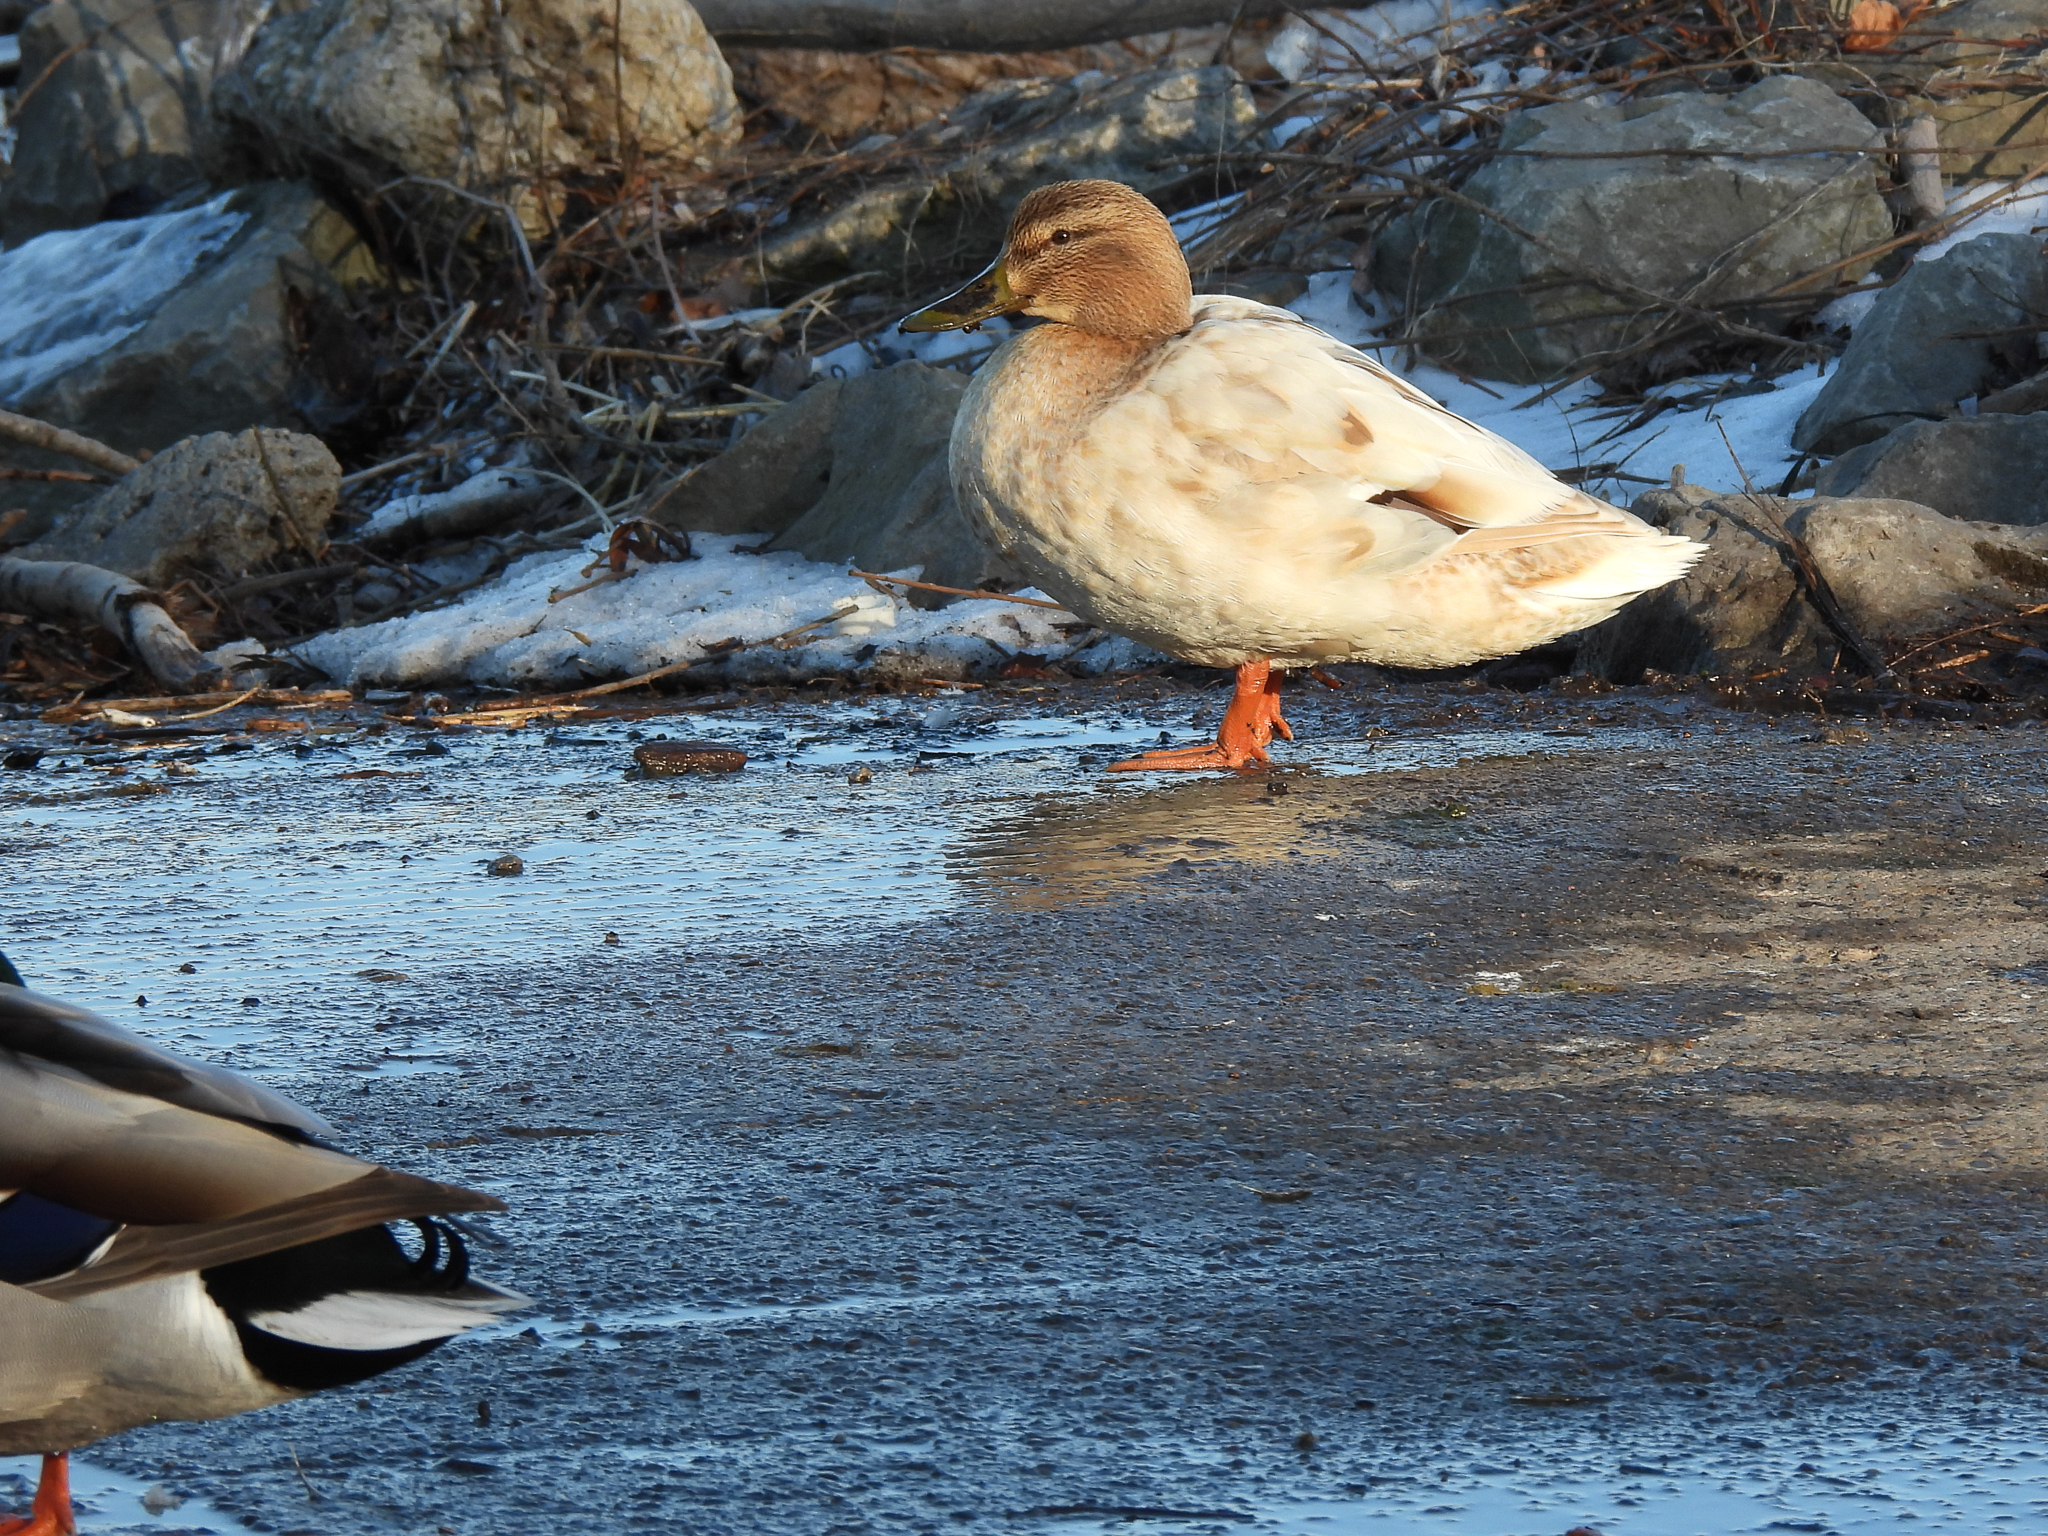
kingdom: Animalia
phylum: Chordata
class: Aves
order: Anseriformes
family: Anatidae
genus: Anas
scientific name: Anas platyrhynchos
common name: Mallard
